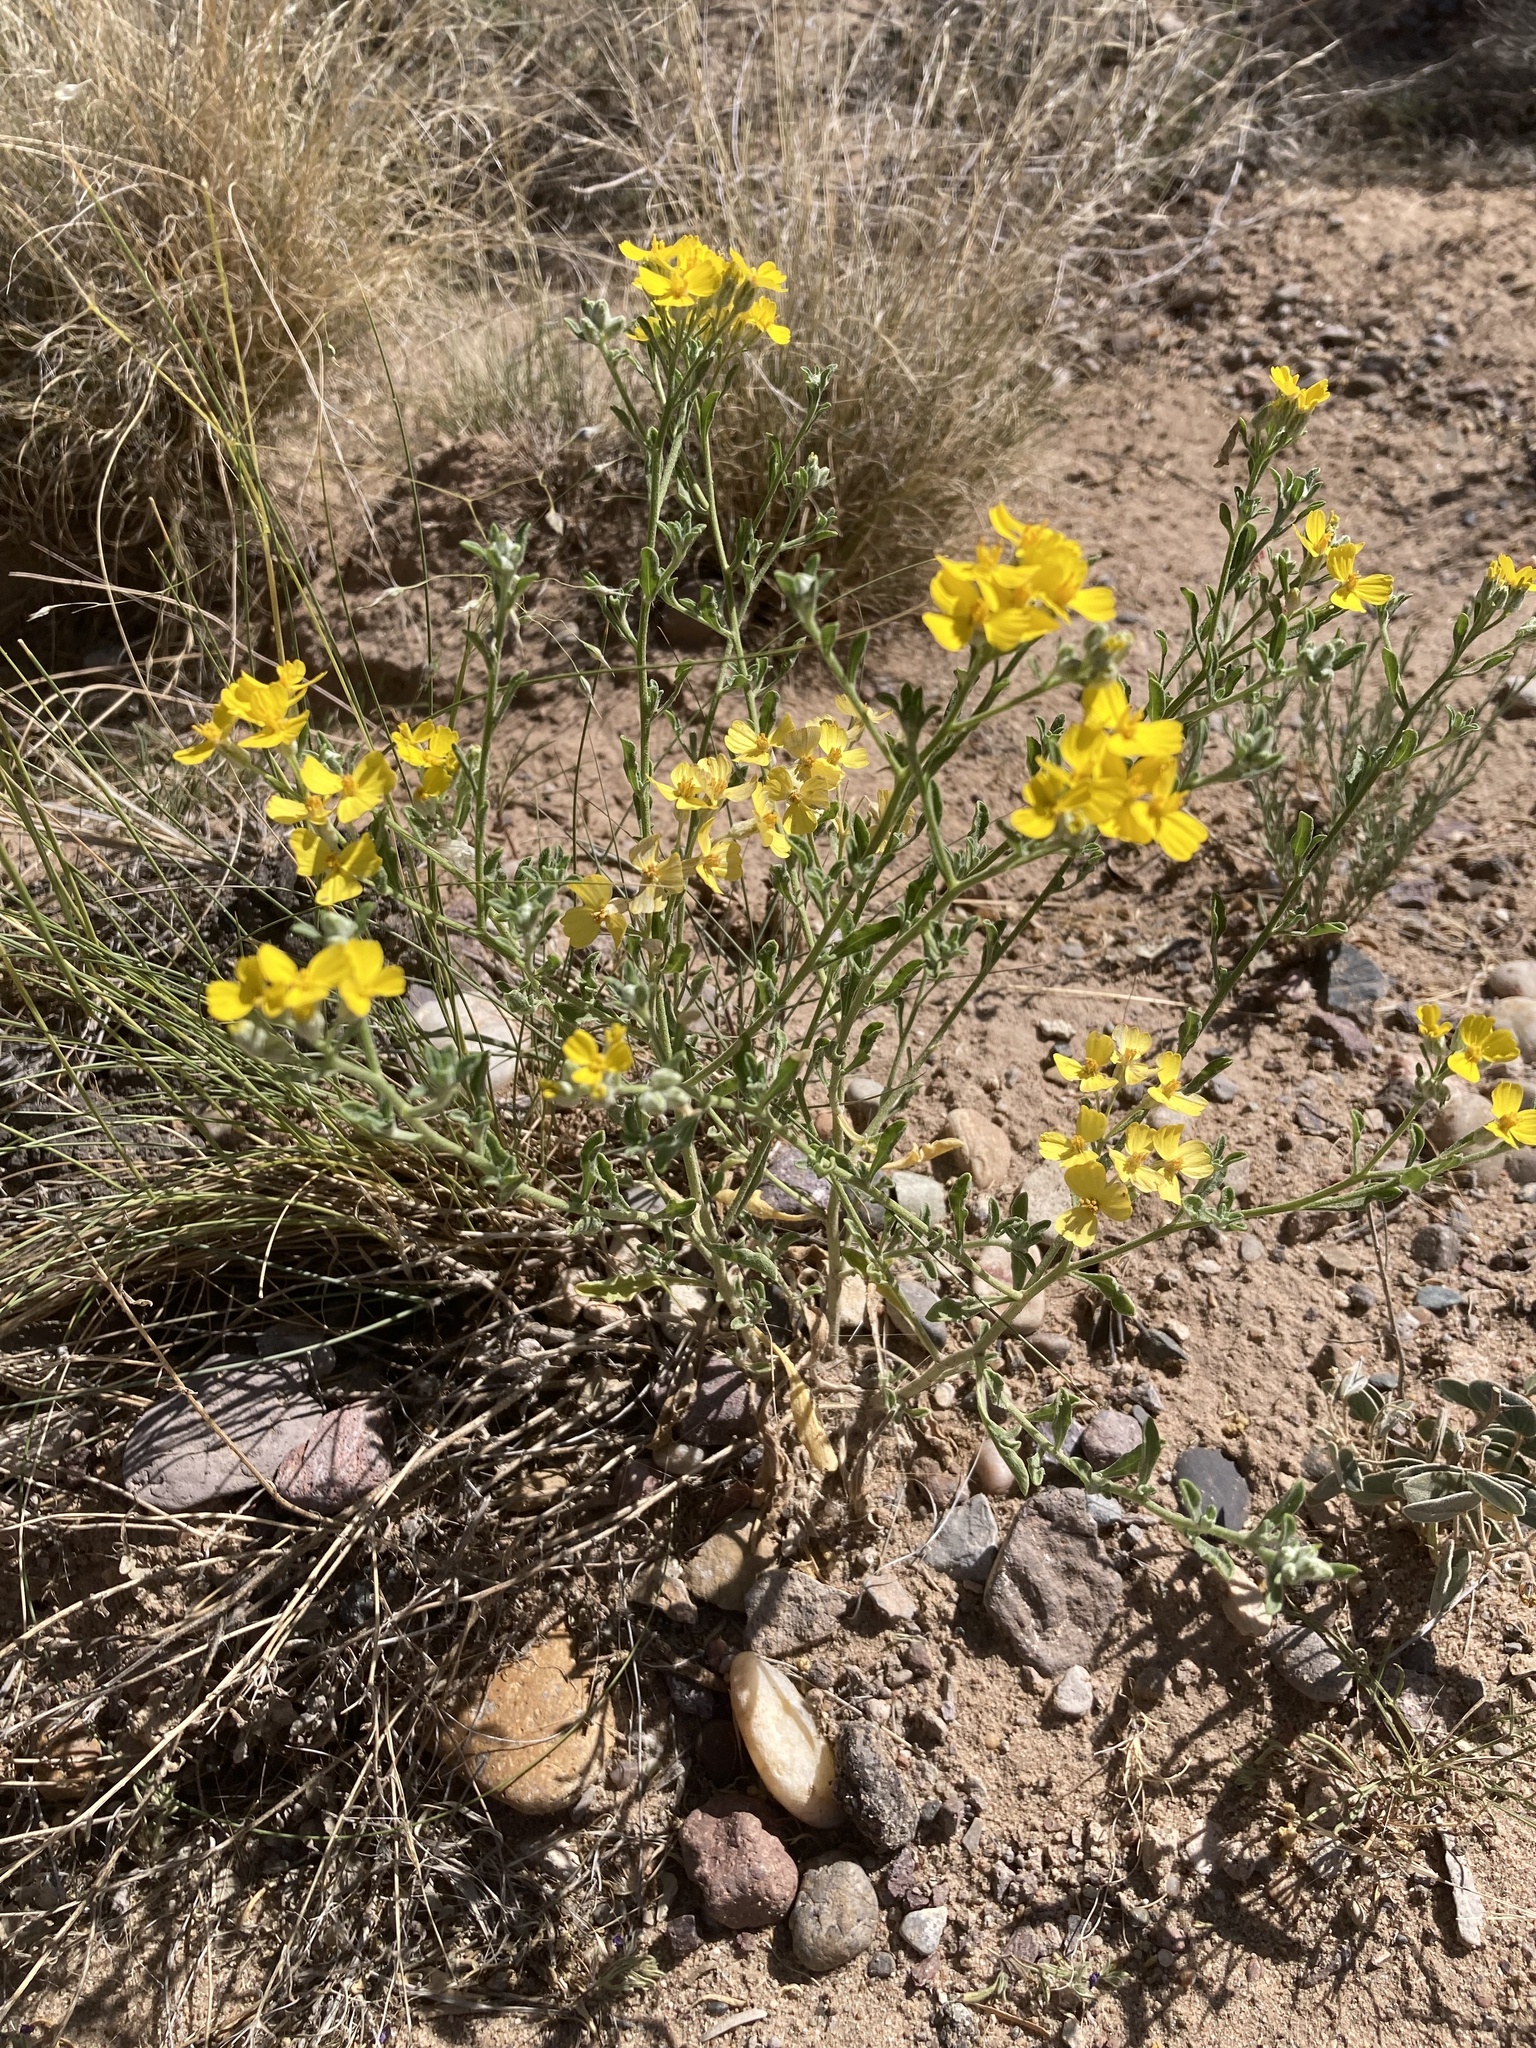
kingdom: Plantae
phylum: Tracheophyta
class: Magnoliopsida
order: Asterales
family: Asteraceae
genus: Psilostrophe
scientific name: Psilostrophe tagetina
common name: Marigold paper-flower
